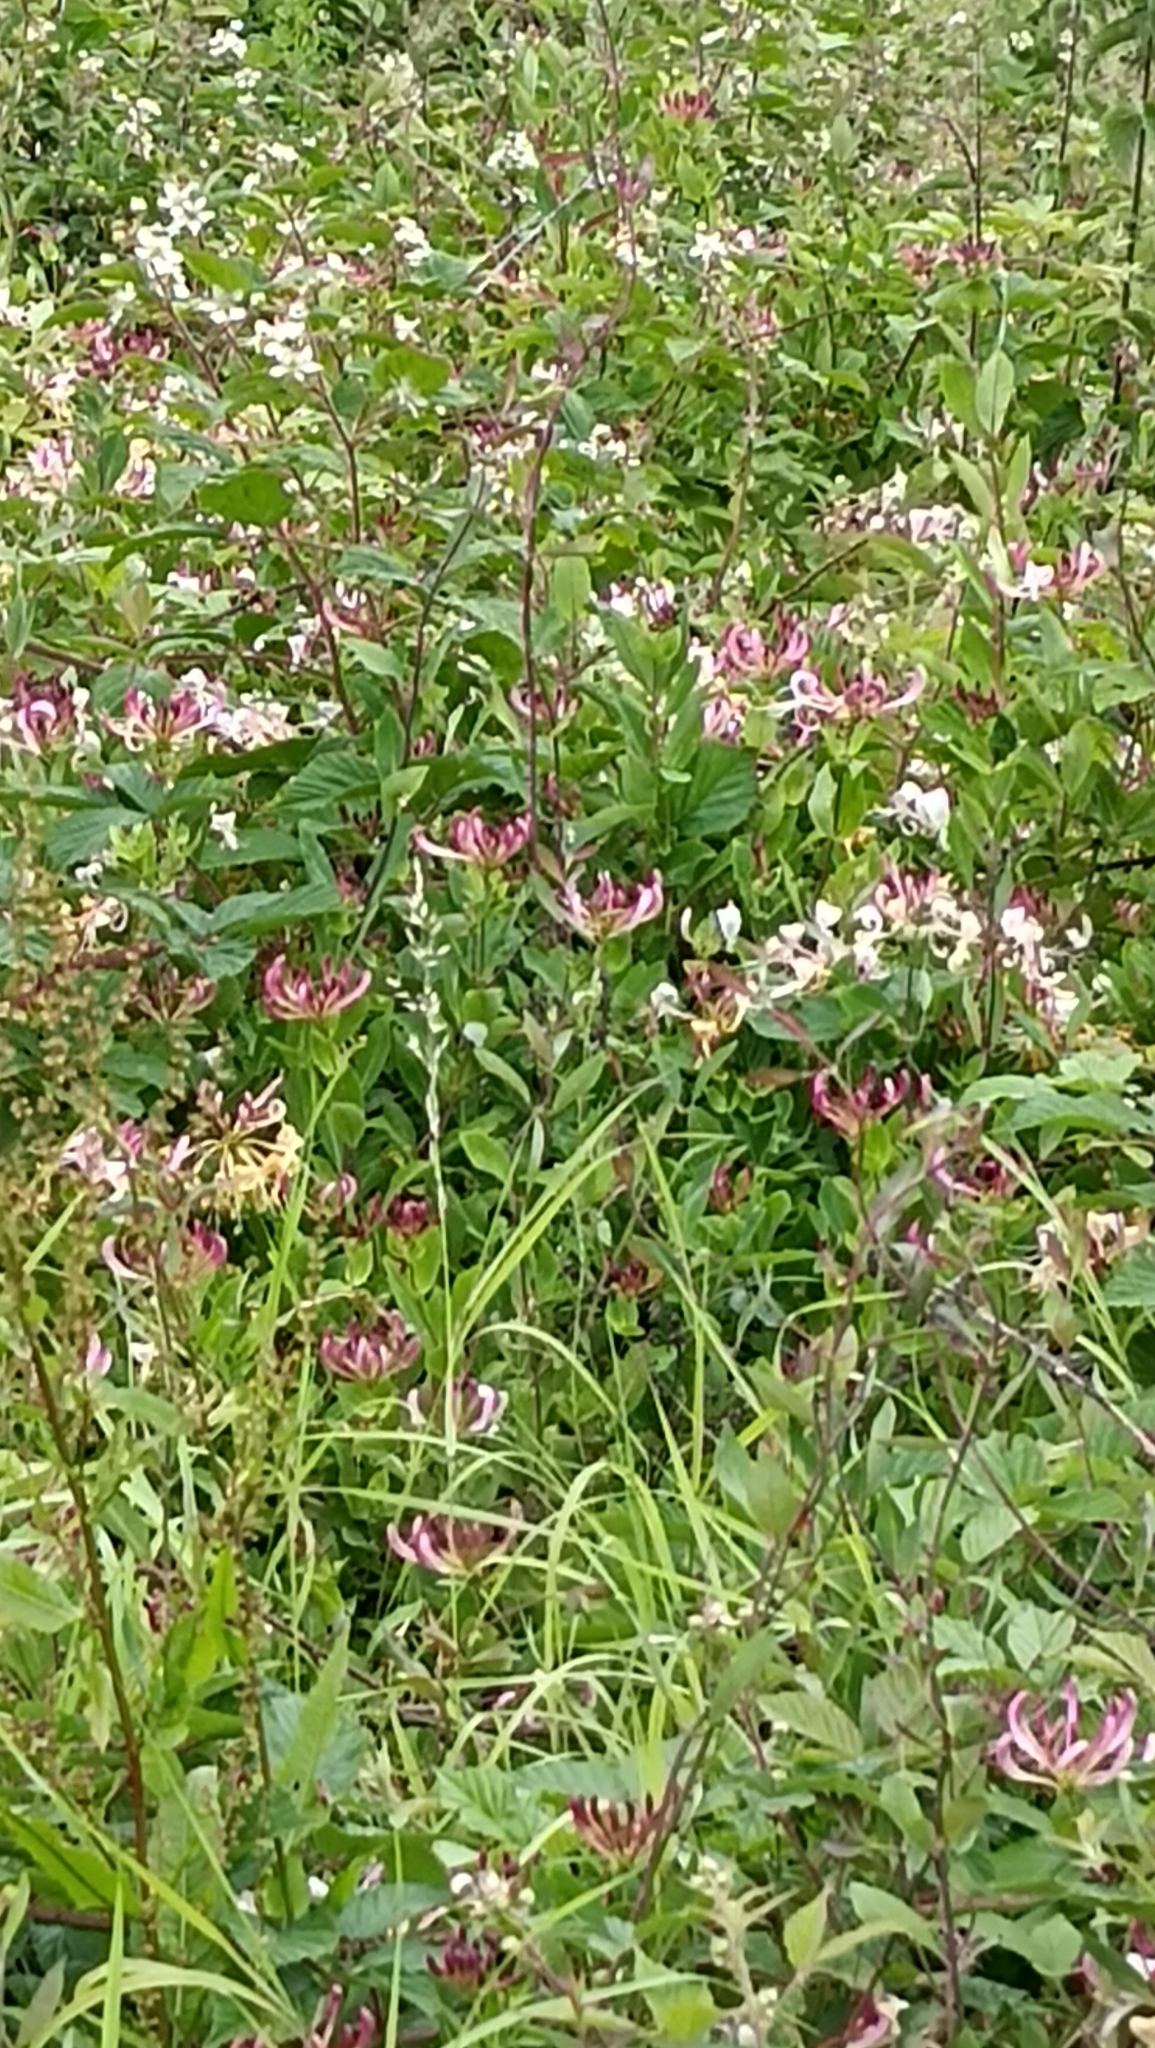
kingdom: Plantae
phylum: Tracheophyta
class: Magnoliopsida
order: Dipsacales
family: Caprifoliaceae
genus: Lonicera
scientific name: Lonicera periclymenum
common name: European honeysuckle
